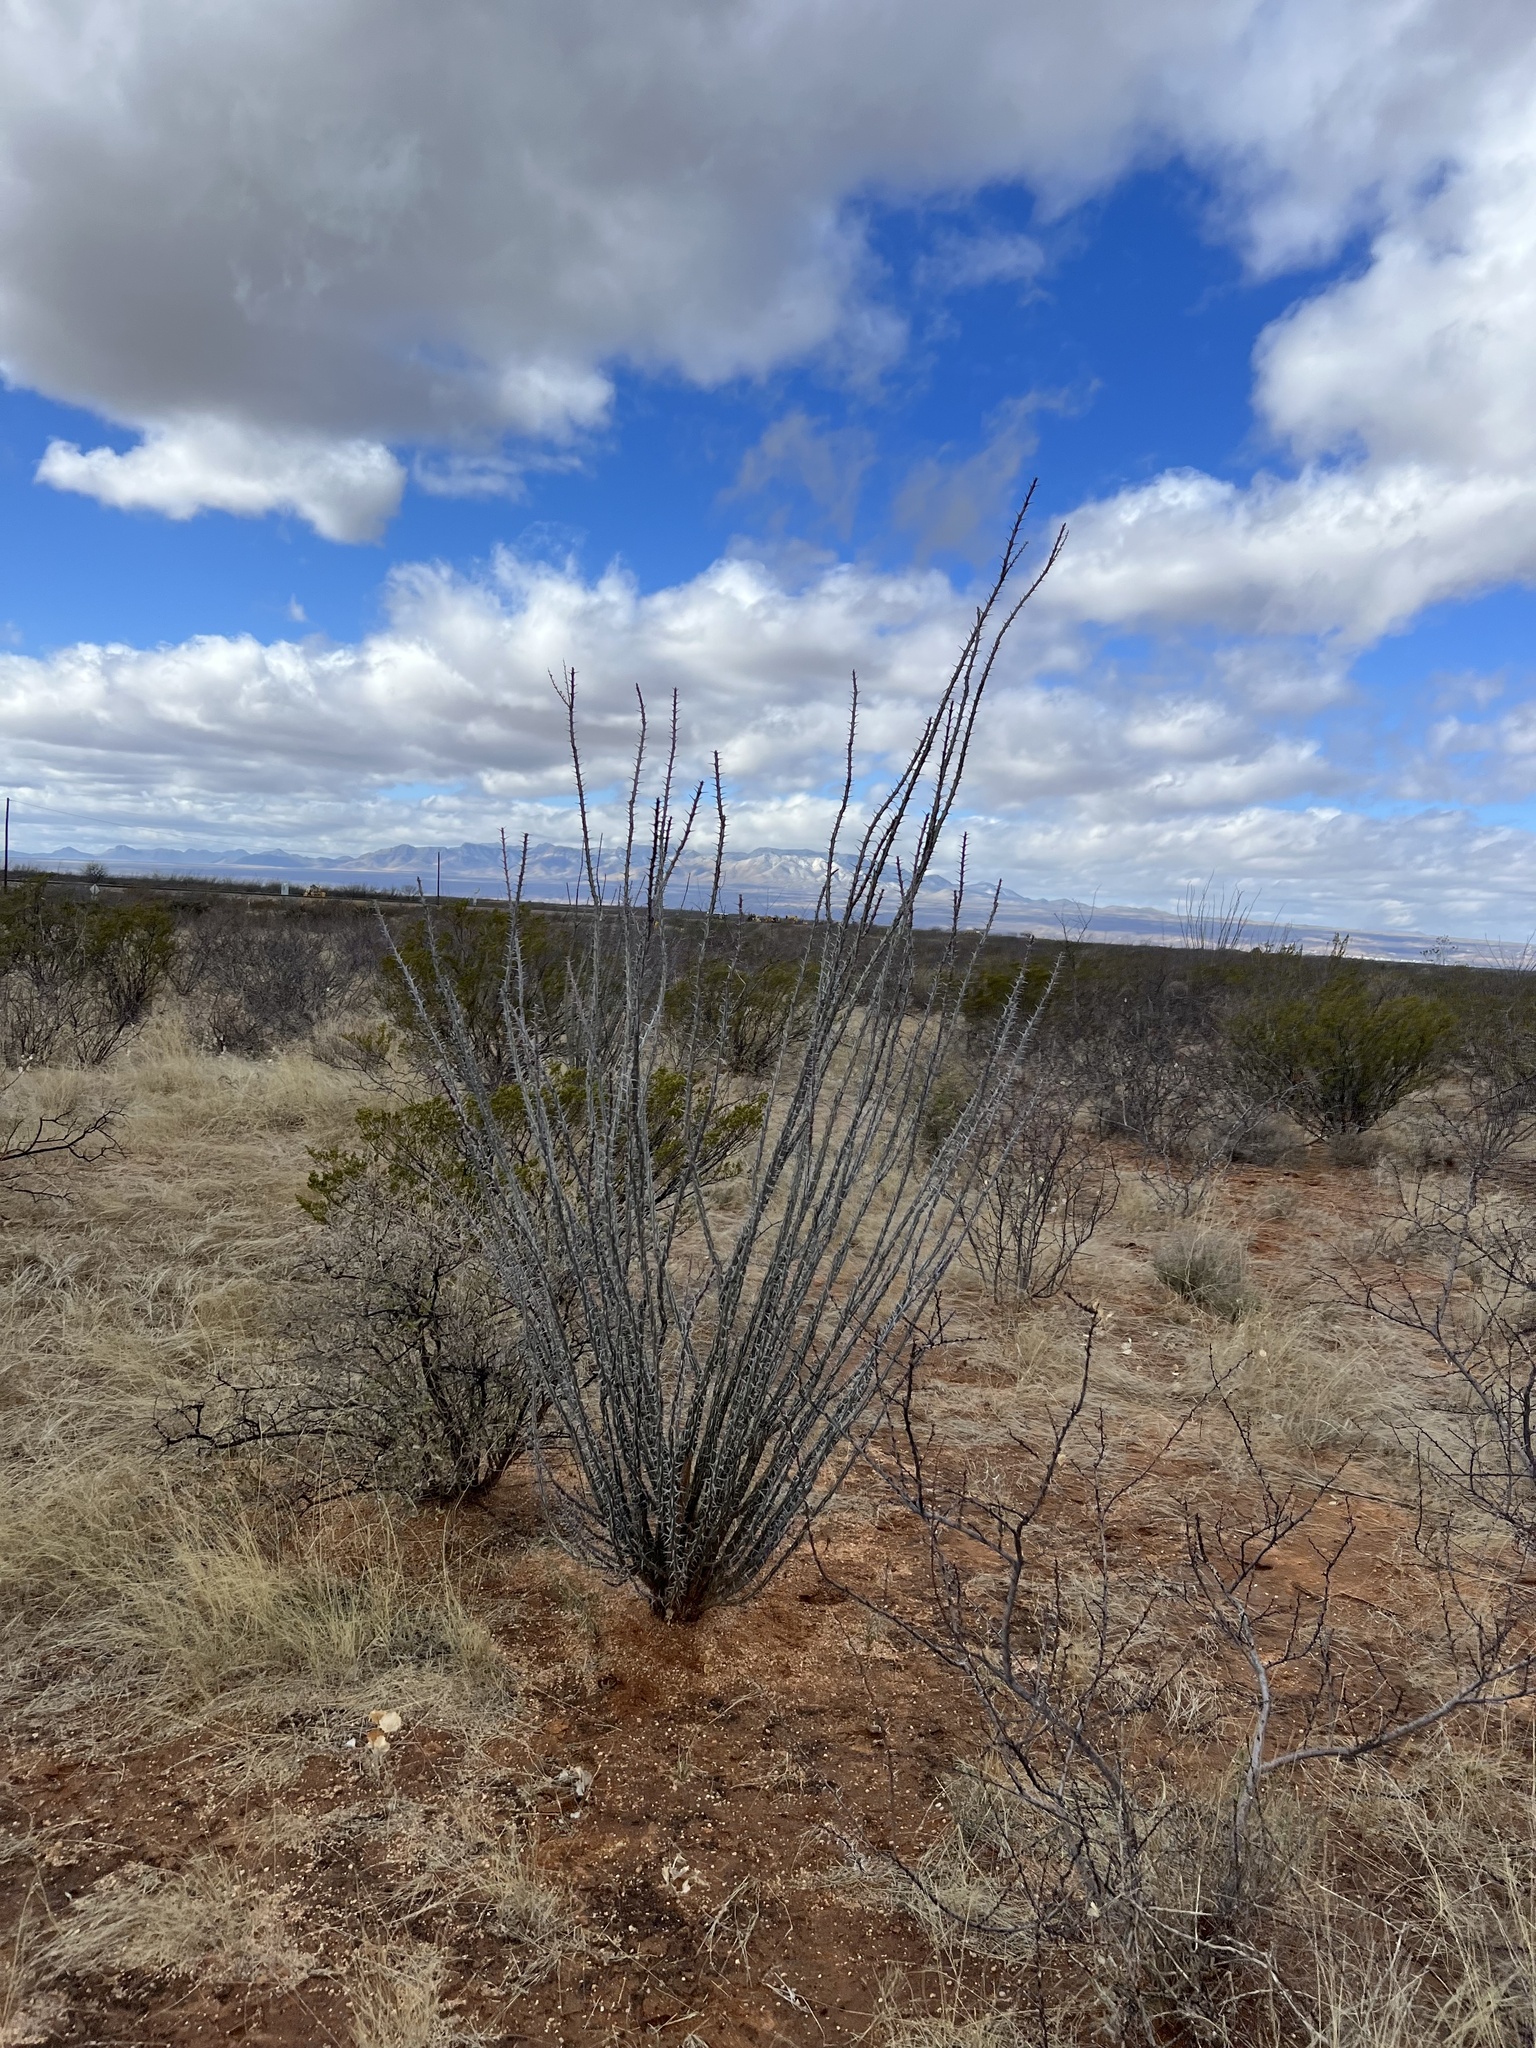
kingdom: Plantae
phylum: Tracheophyta
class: Magnoliopsida
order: Ericales
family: Fouquieriaceae
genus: Fouquieria
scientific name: Fouquieria splendens
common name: Vine-cactus
